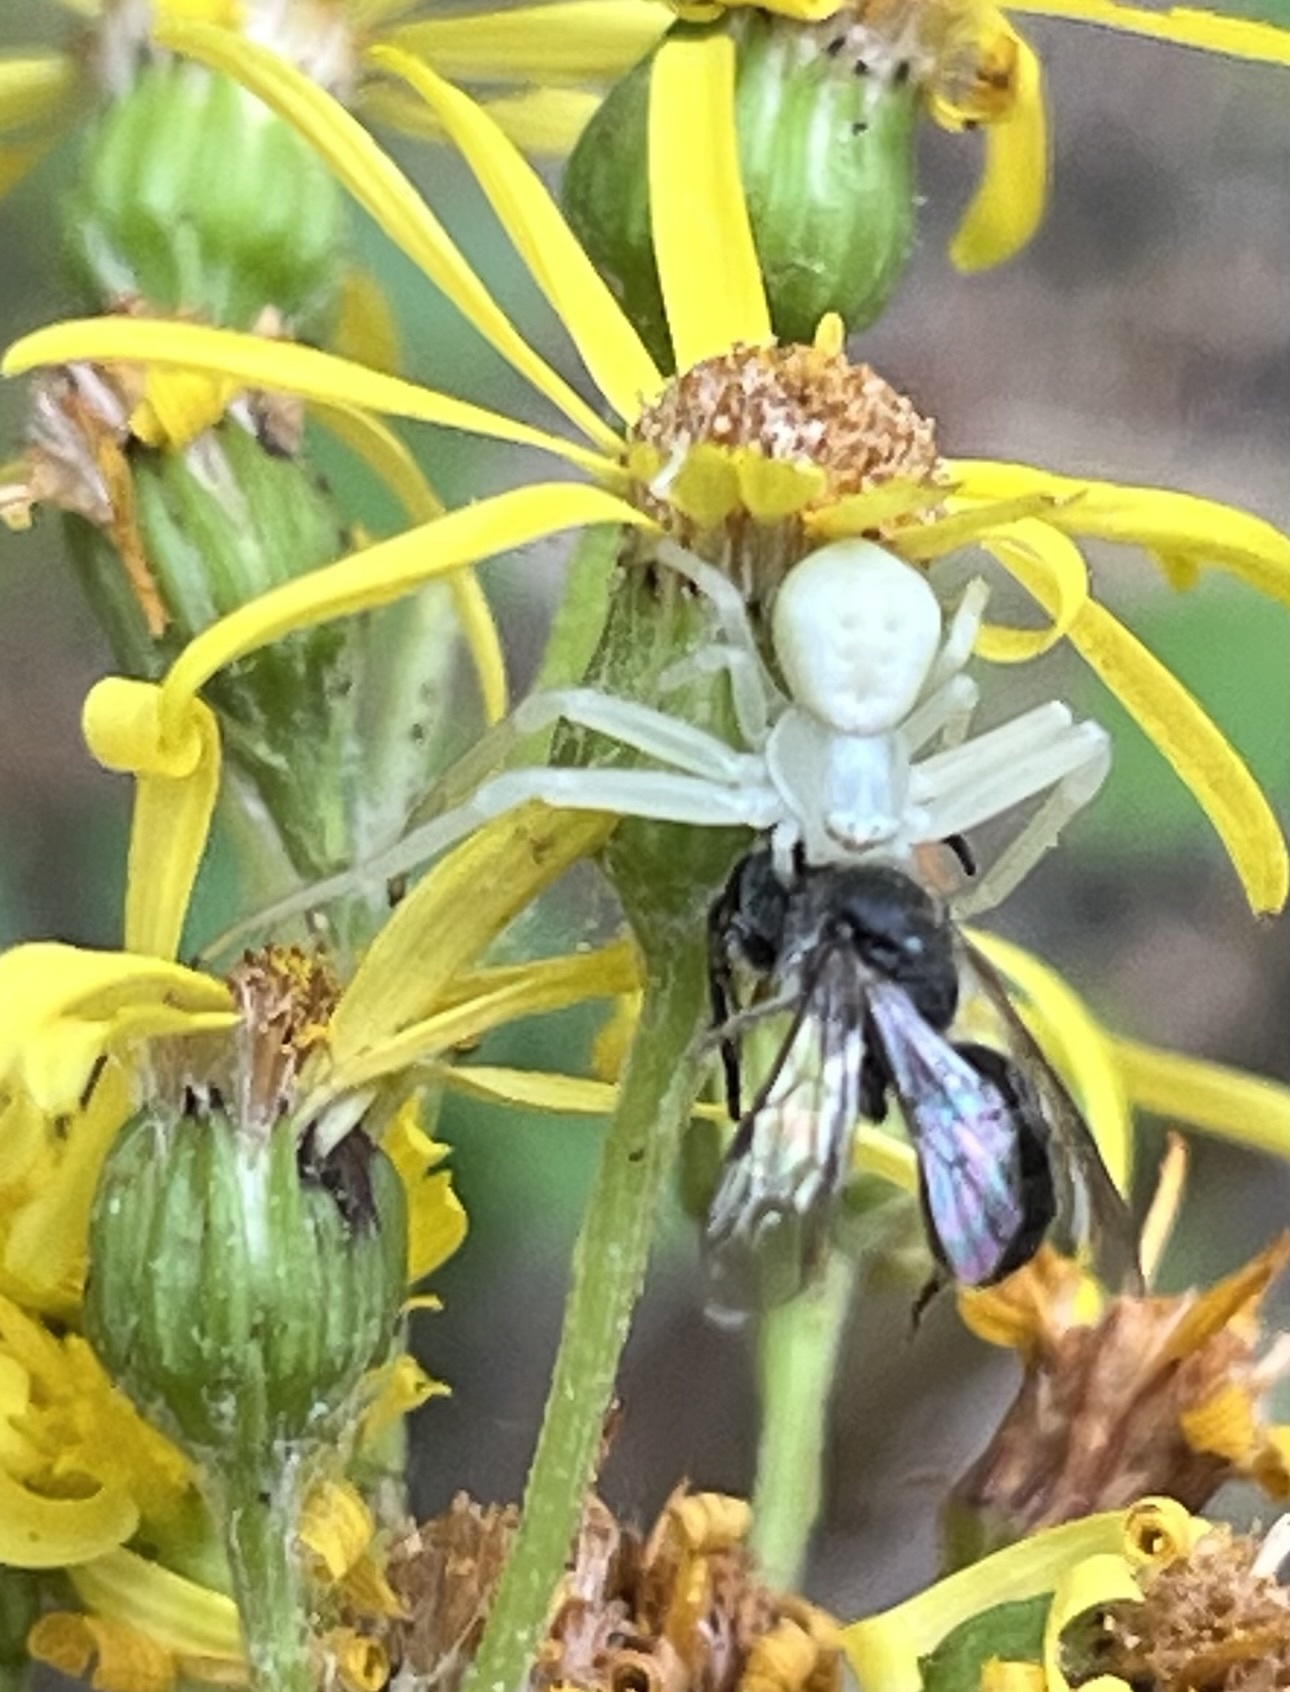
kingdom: Animalia
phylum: Arthropoda
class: Arachnida
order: Araneae
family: Thomisidae
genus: Misumena
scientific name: Misumena vatia
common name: Goldenrod crab spider
